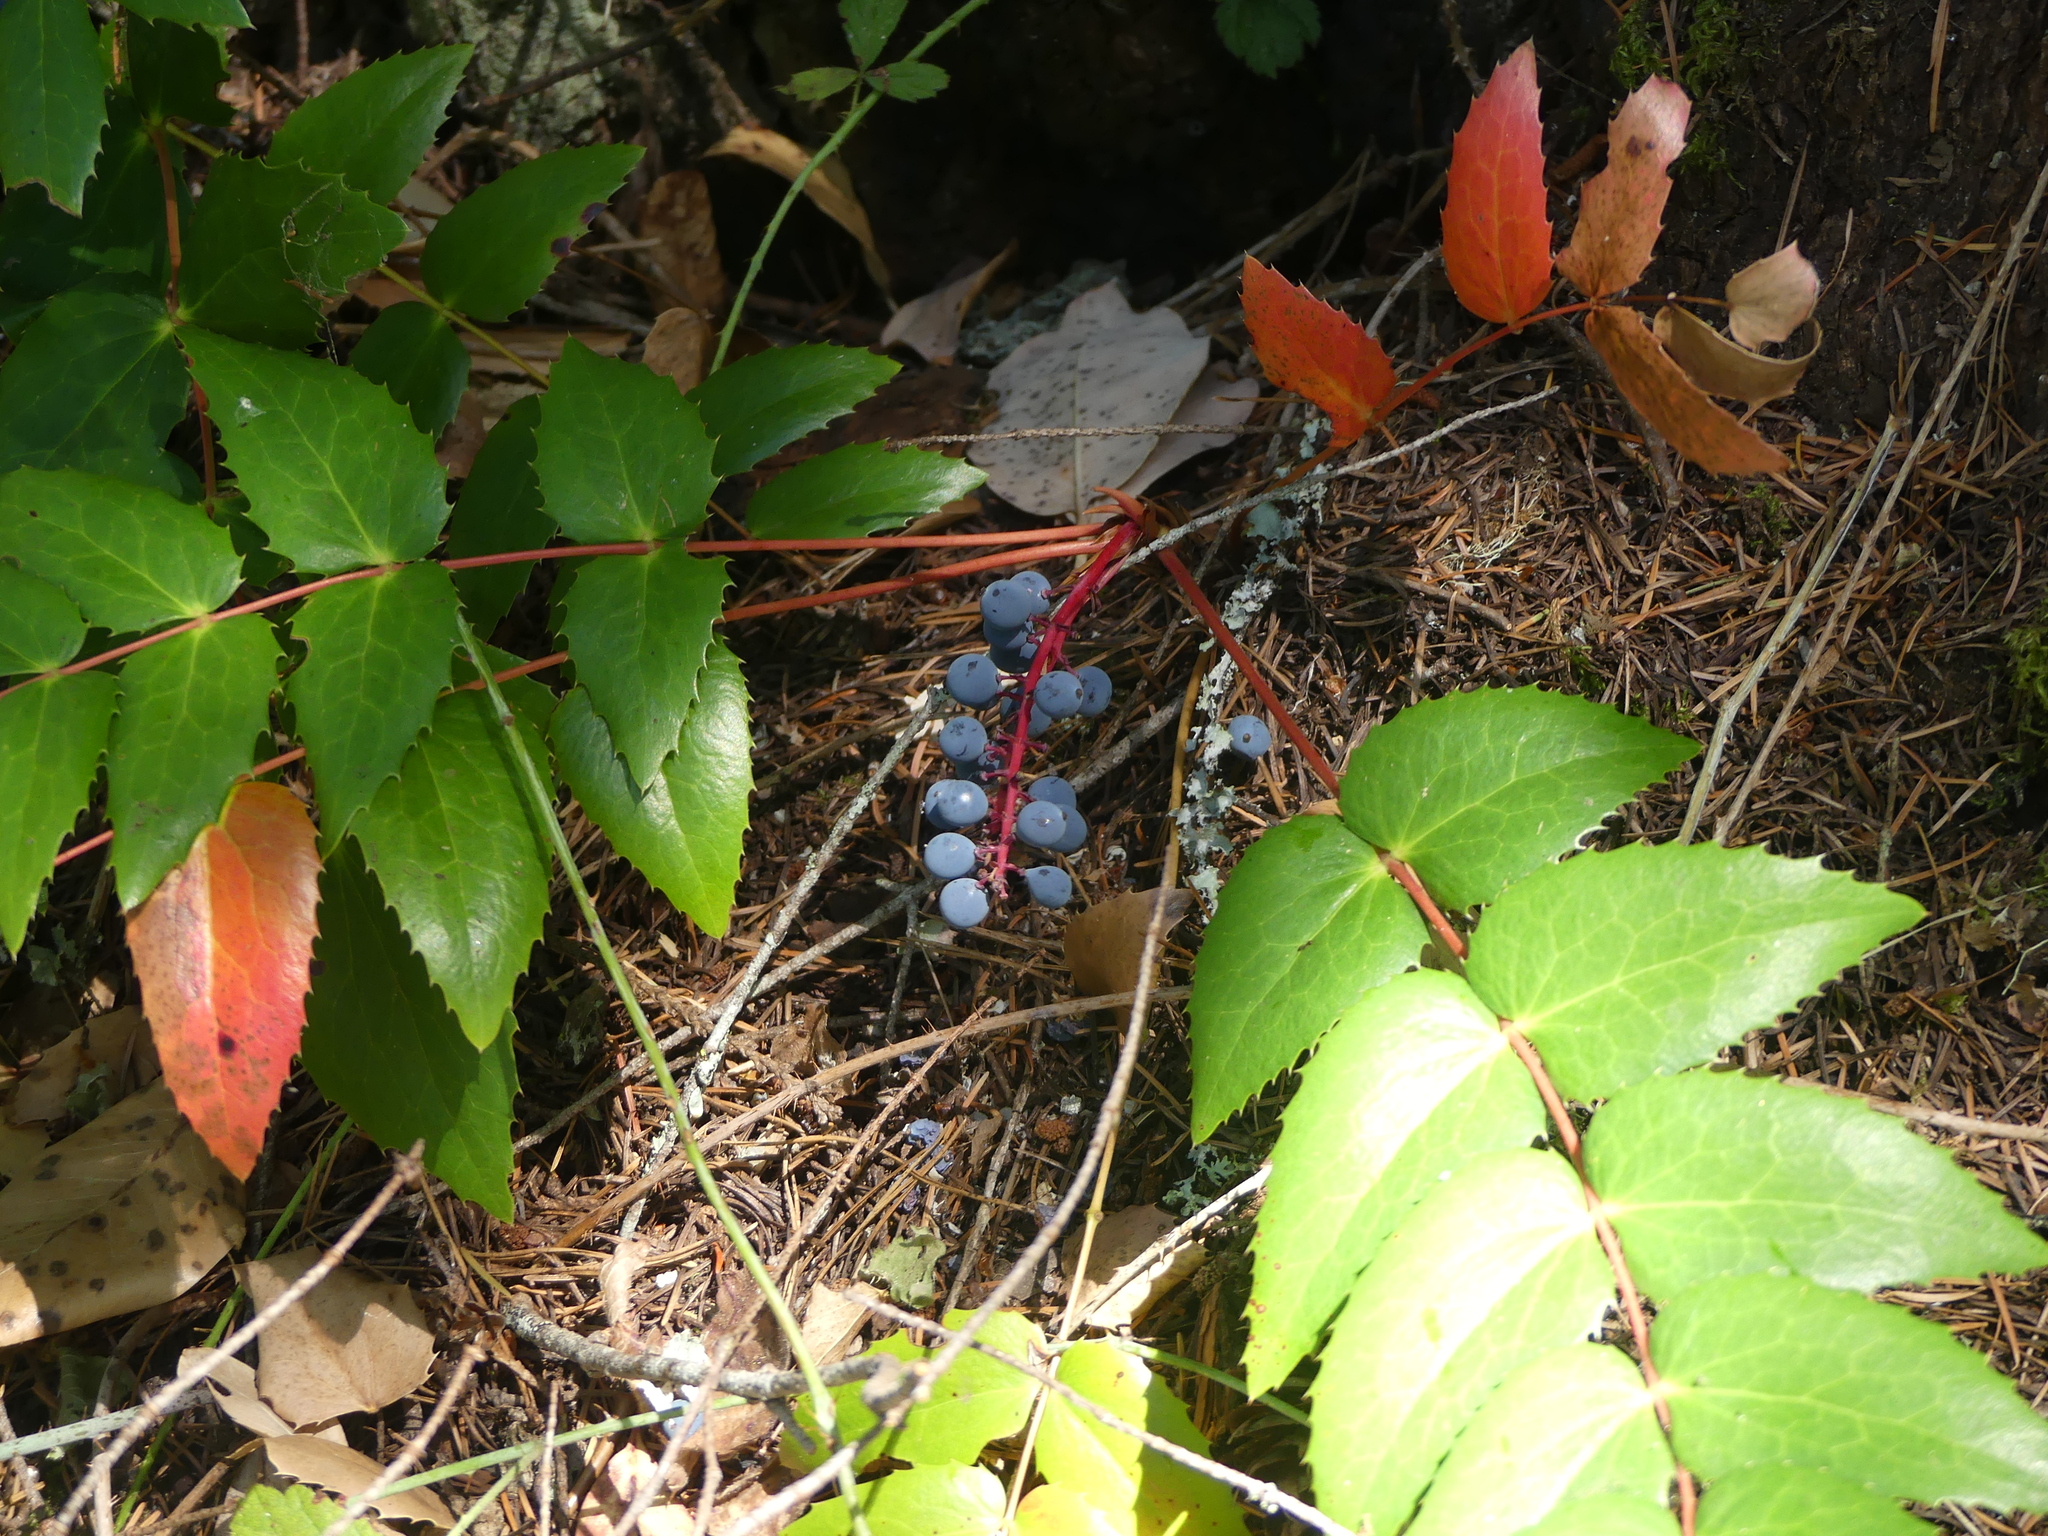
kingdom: Plantae
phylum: Tracheophyta
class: Magnoliopsida
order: Ranunculales
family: Berberidaceae
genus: Mahonia
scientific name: Mahonia nervosa
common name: Cascade oregon-grape
